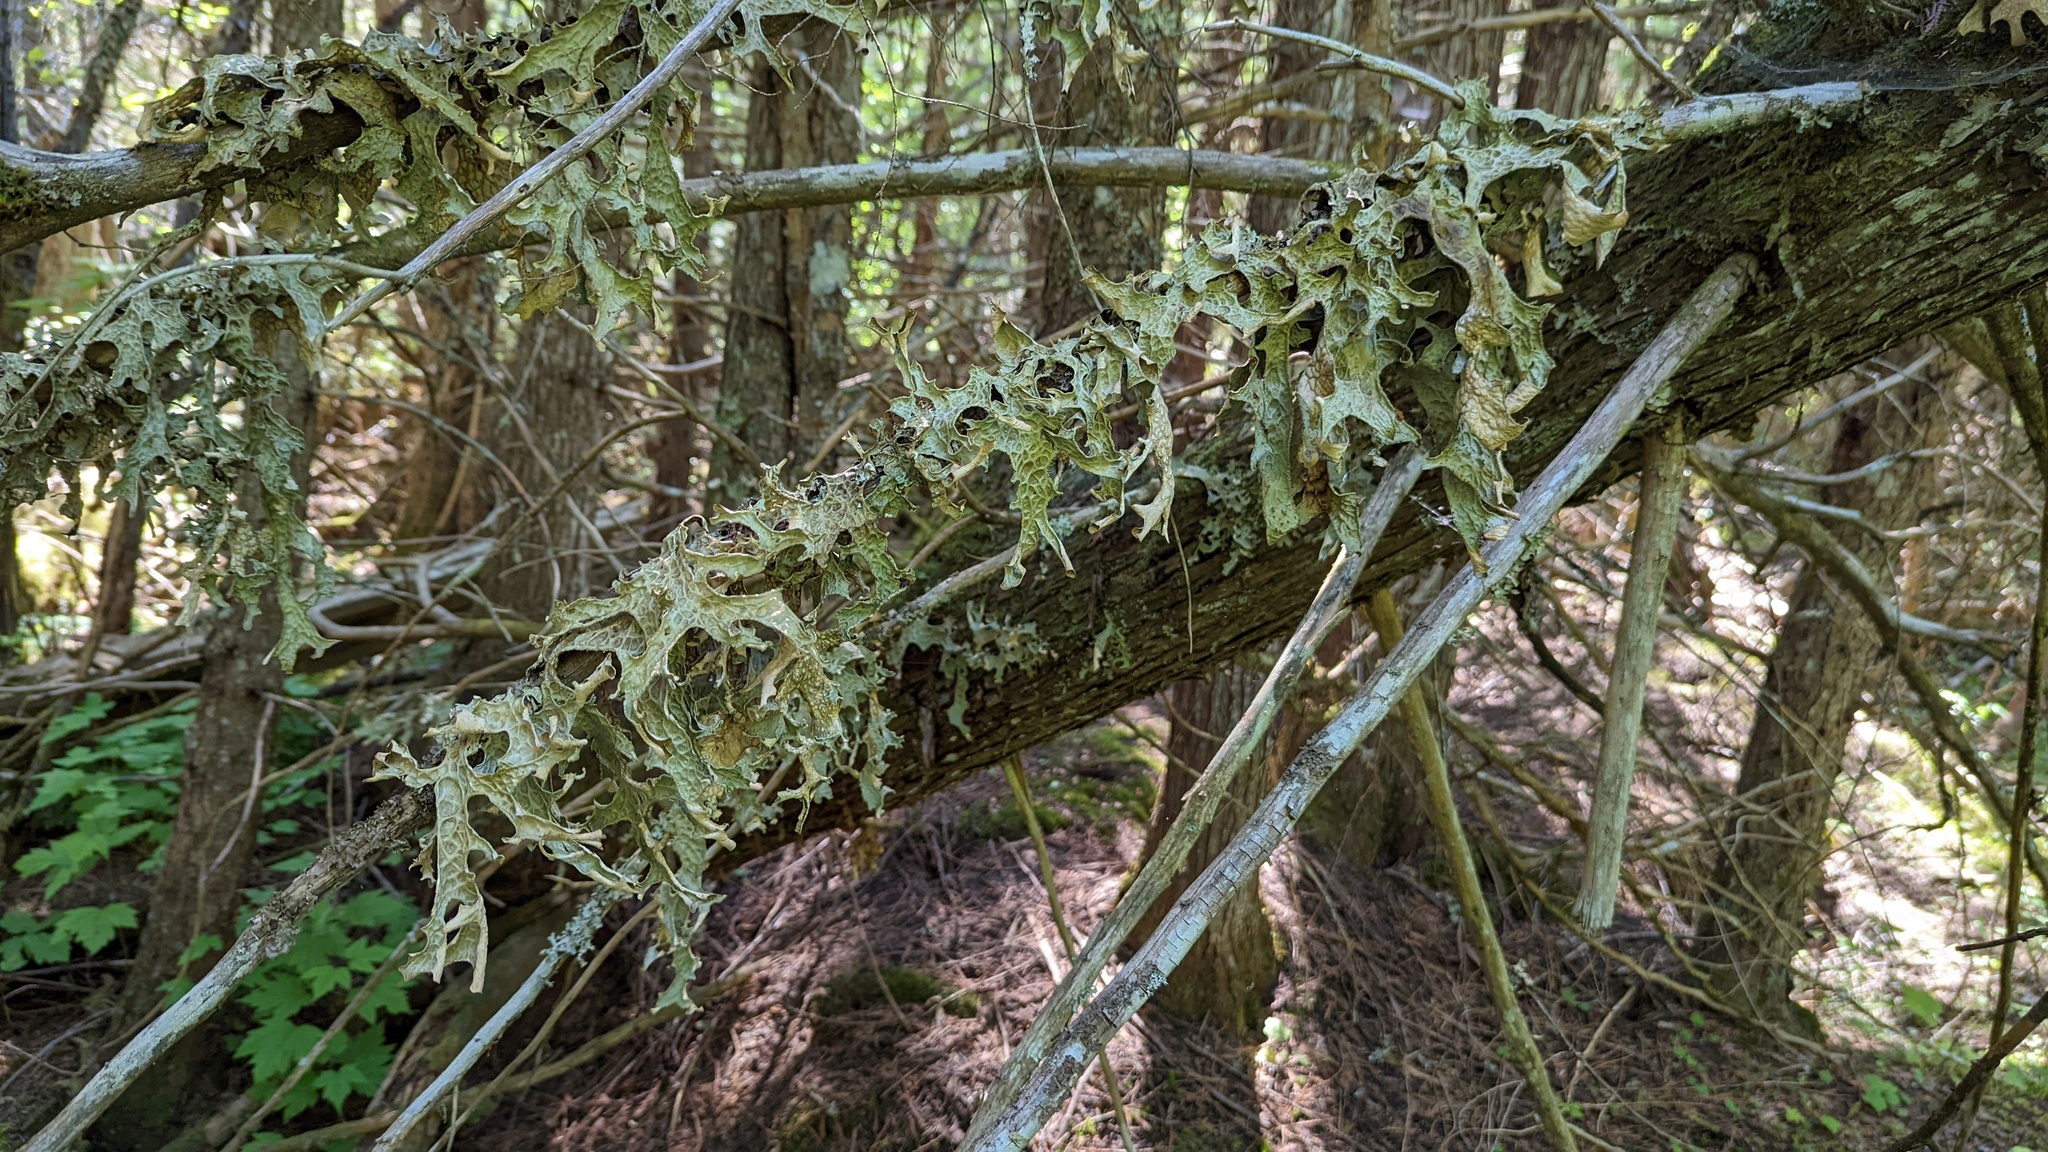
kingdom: Fungi
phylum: Ascomycota
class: Lecanoromycetes
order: Peltigerales
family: Lobariaceae
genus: Lobaria
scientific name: Lobaria pulmonaria
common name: Lungwort
